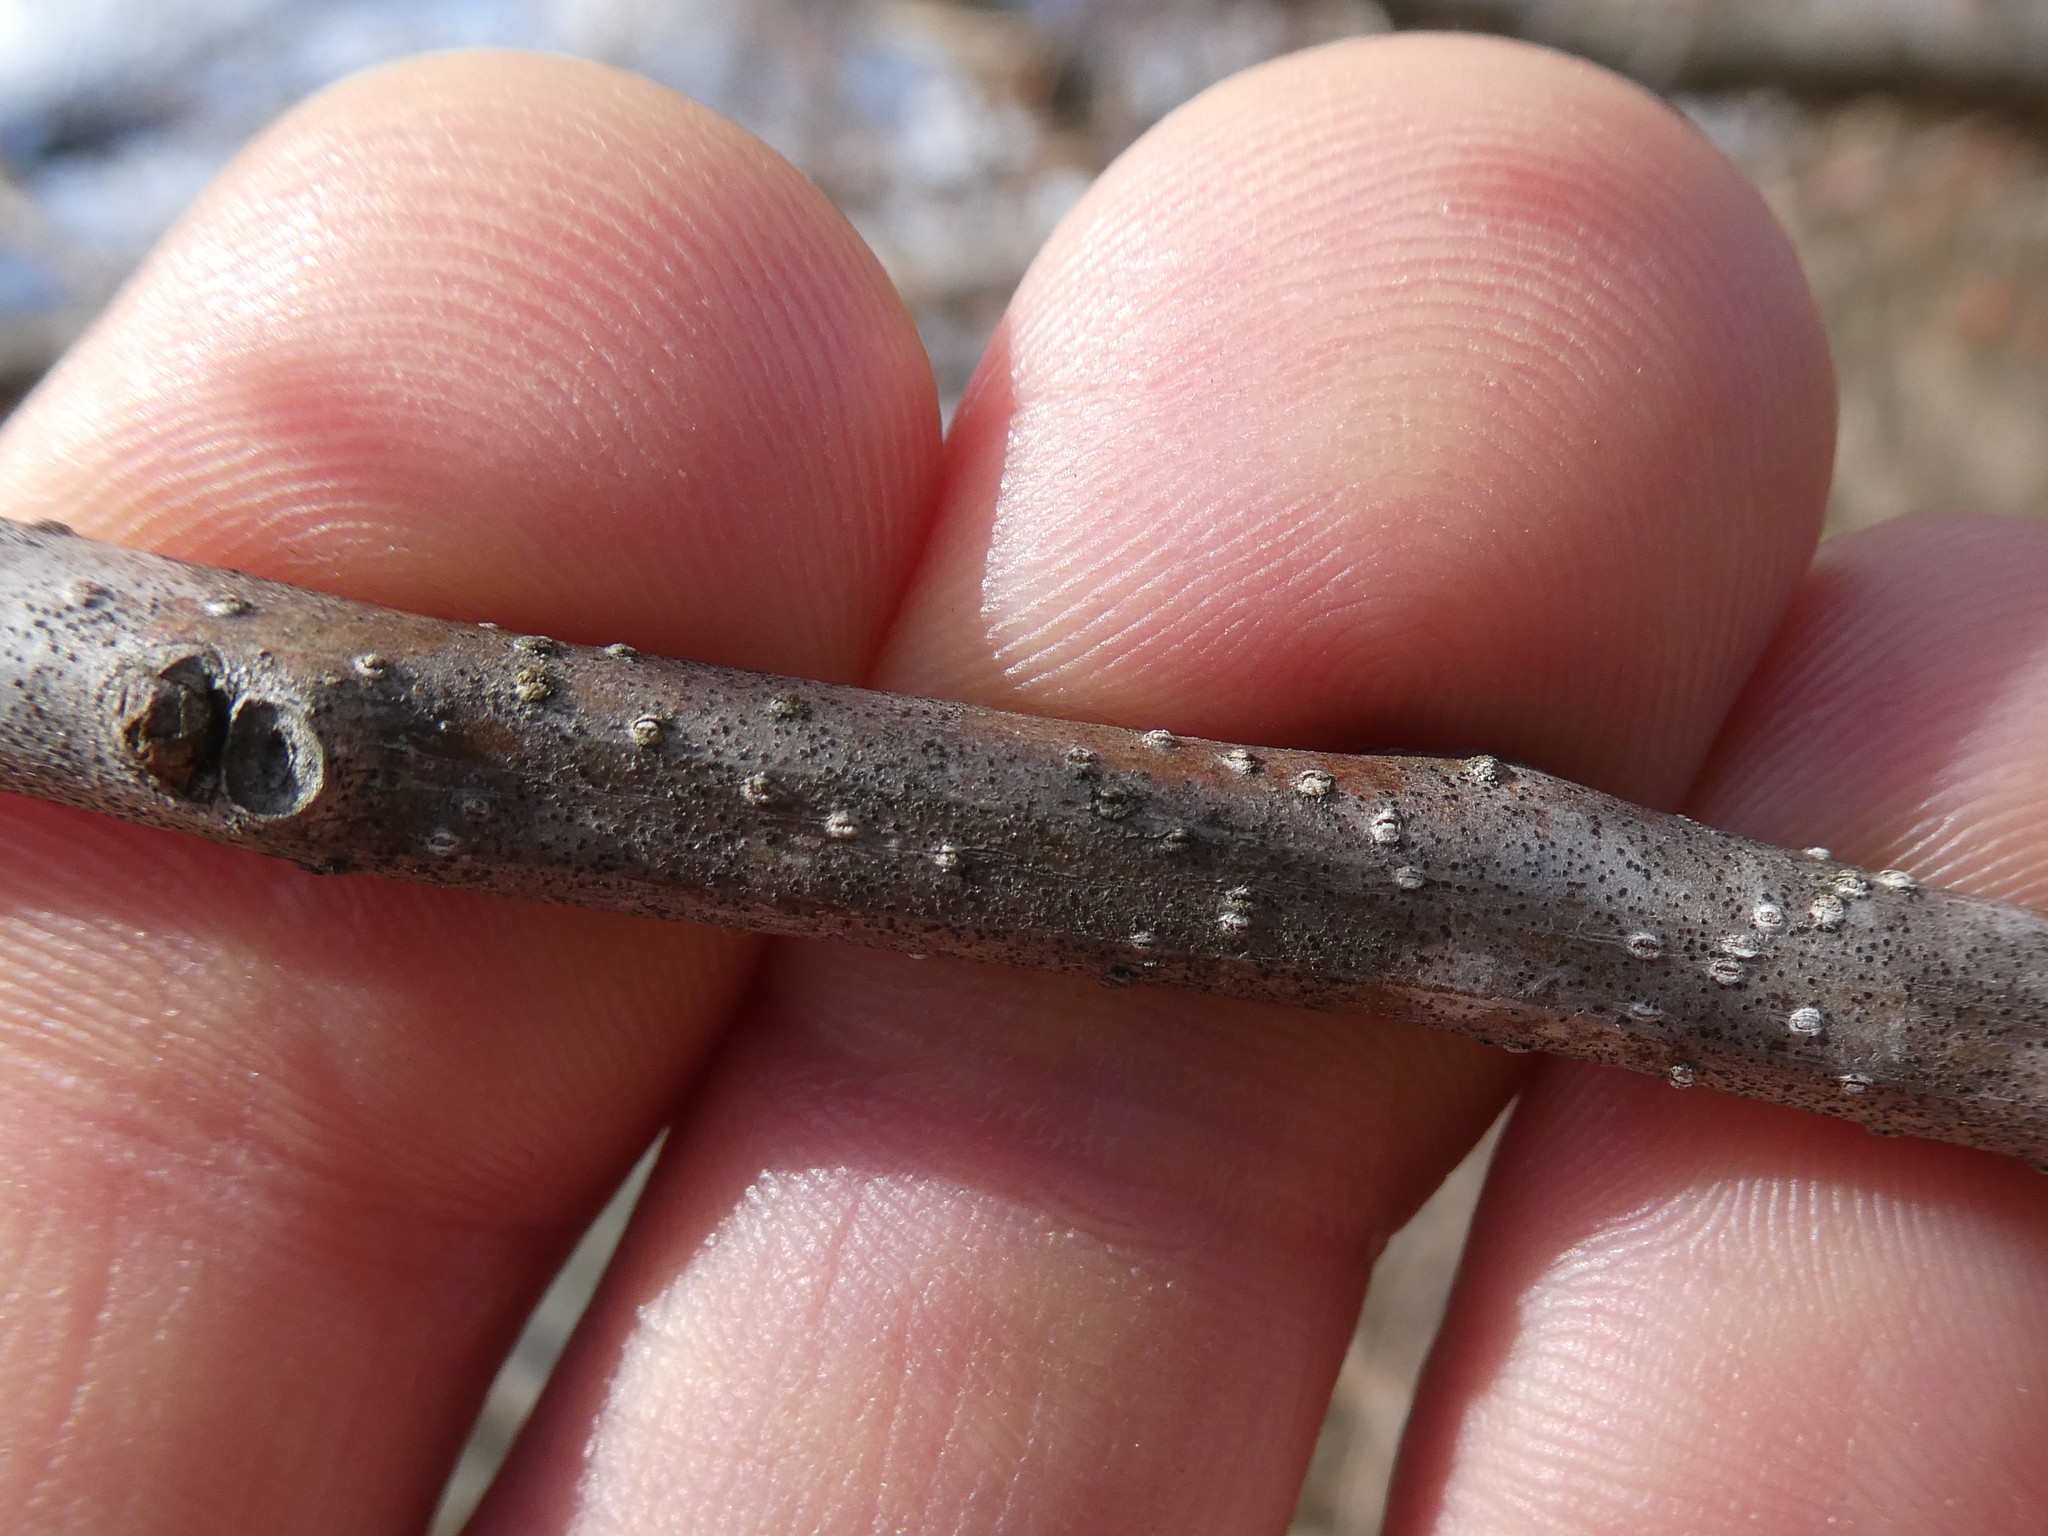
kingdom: Plantae
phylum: Tracheophyta
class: Magnoliopsida
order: Celastrales
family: Celastraceae
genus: Celastrus
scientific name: Celastrus orbiculatus
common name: Oriental bittersweet
